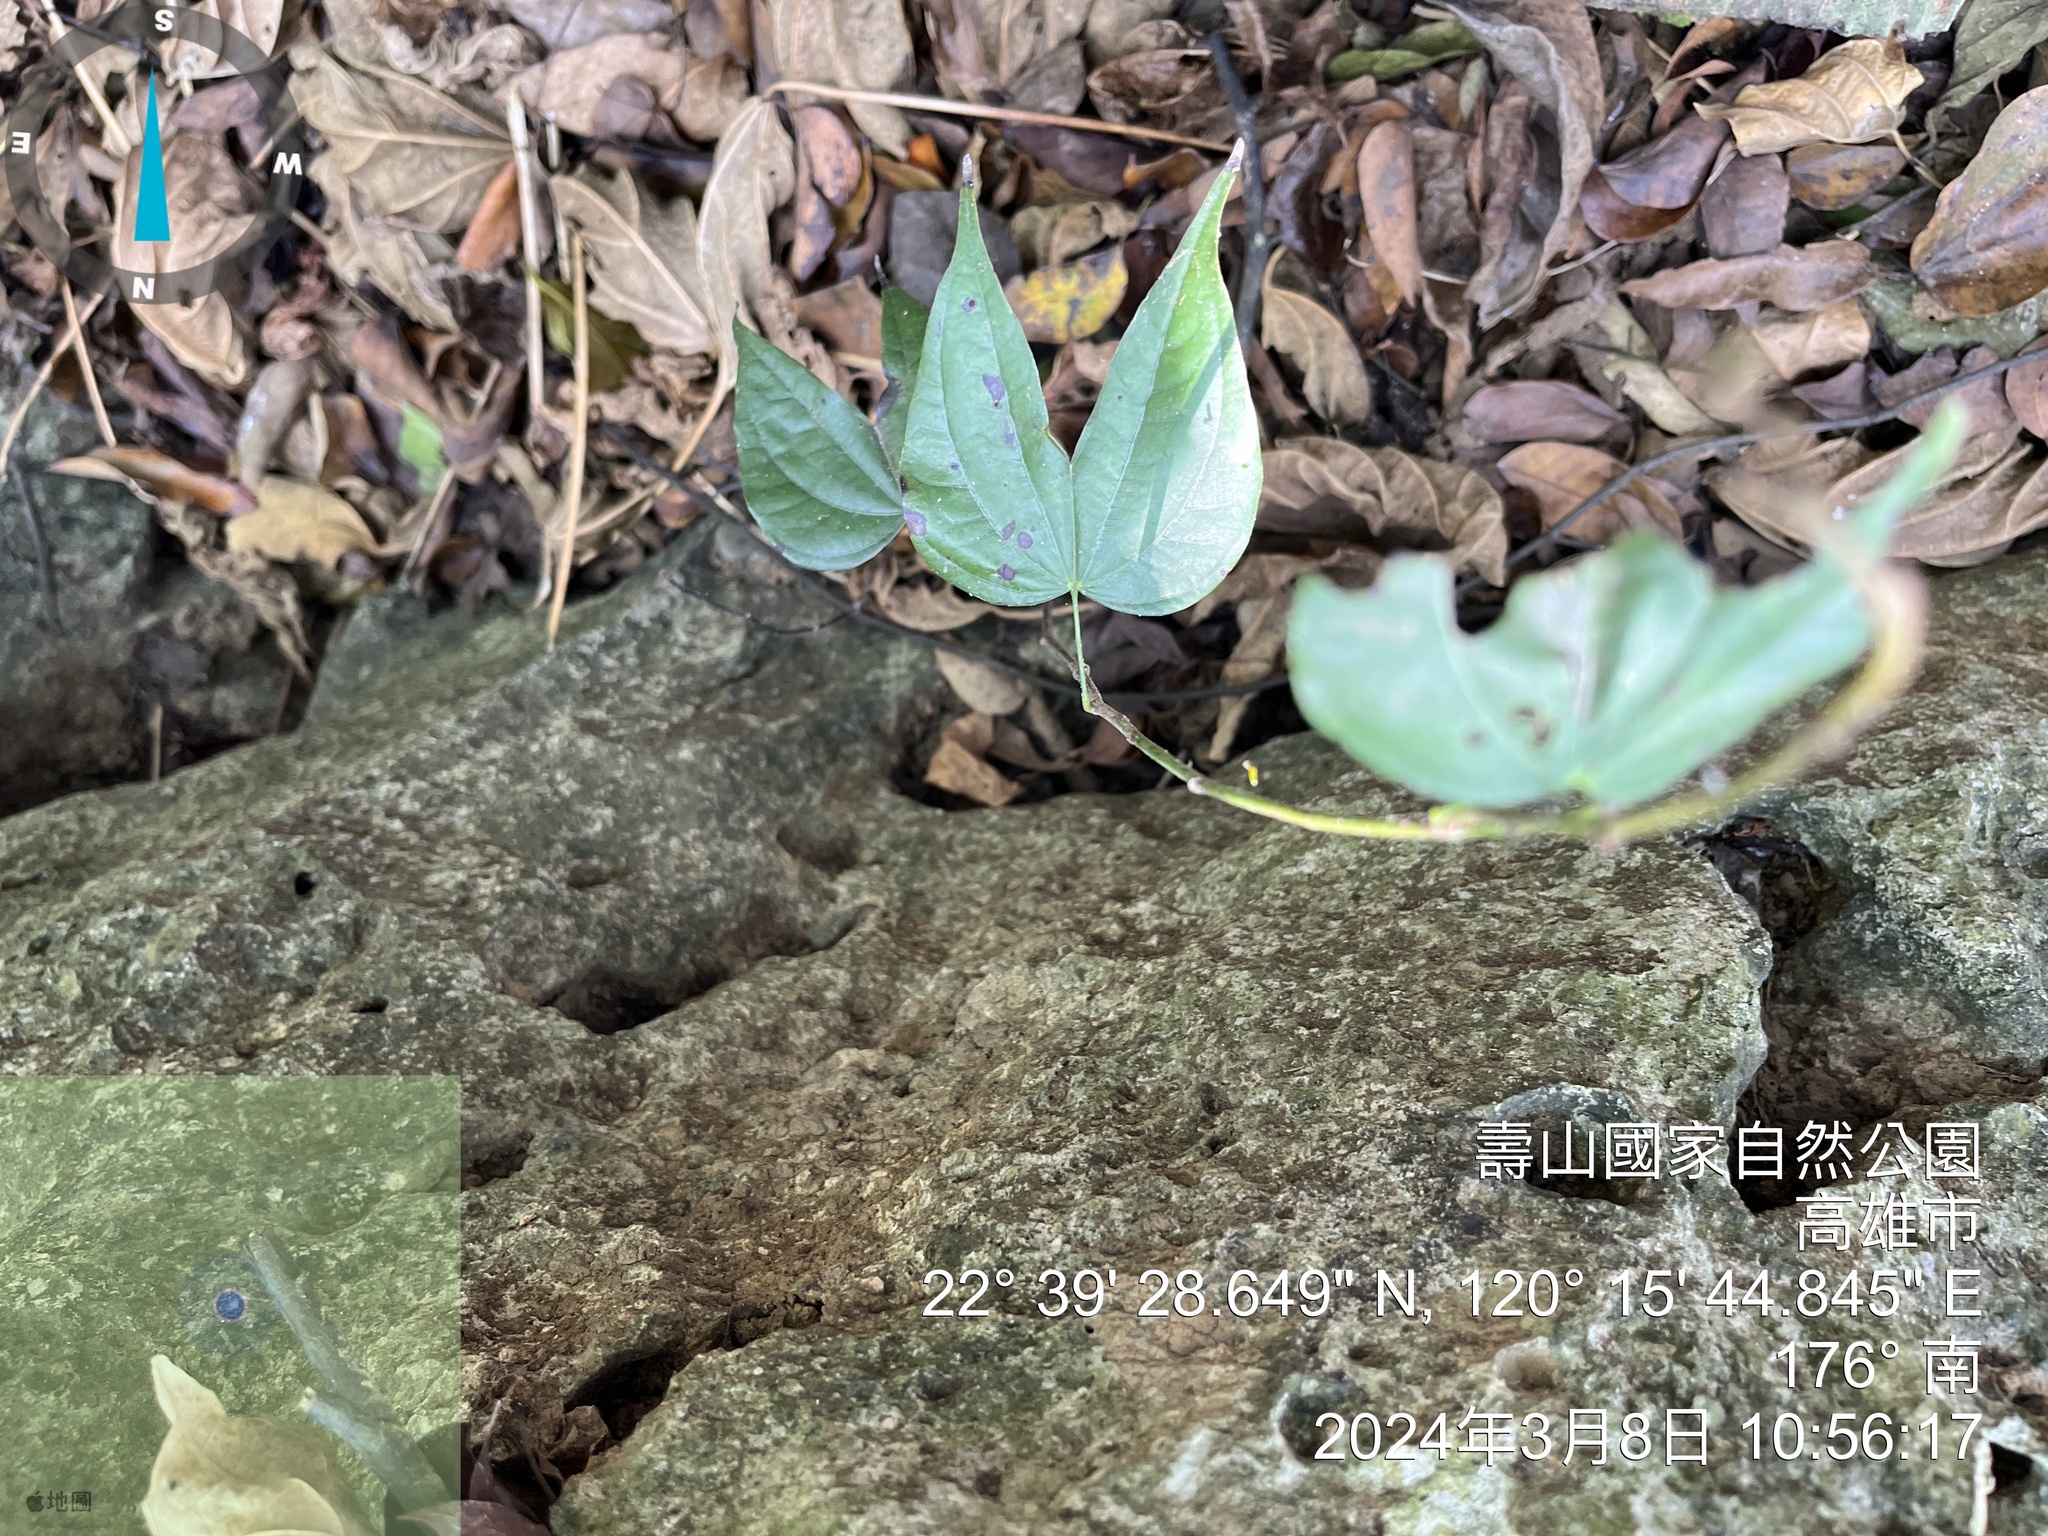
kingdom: Plantae
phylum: Tracheophyta
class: Magnoliopsida
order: Fabales
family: Fabaceae
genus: Phanera
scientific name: Phanera championii
